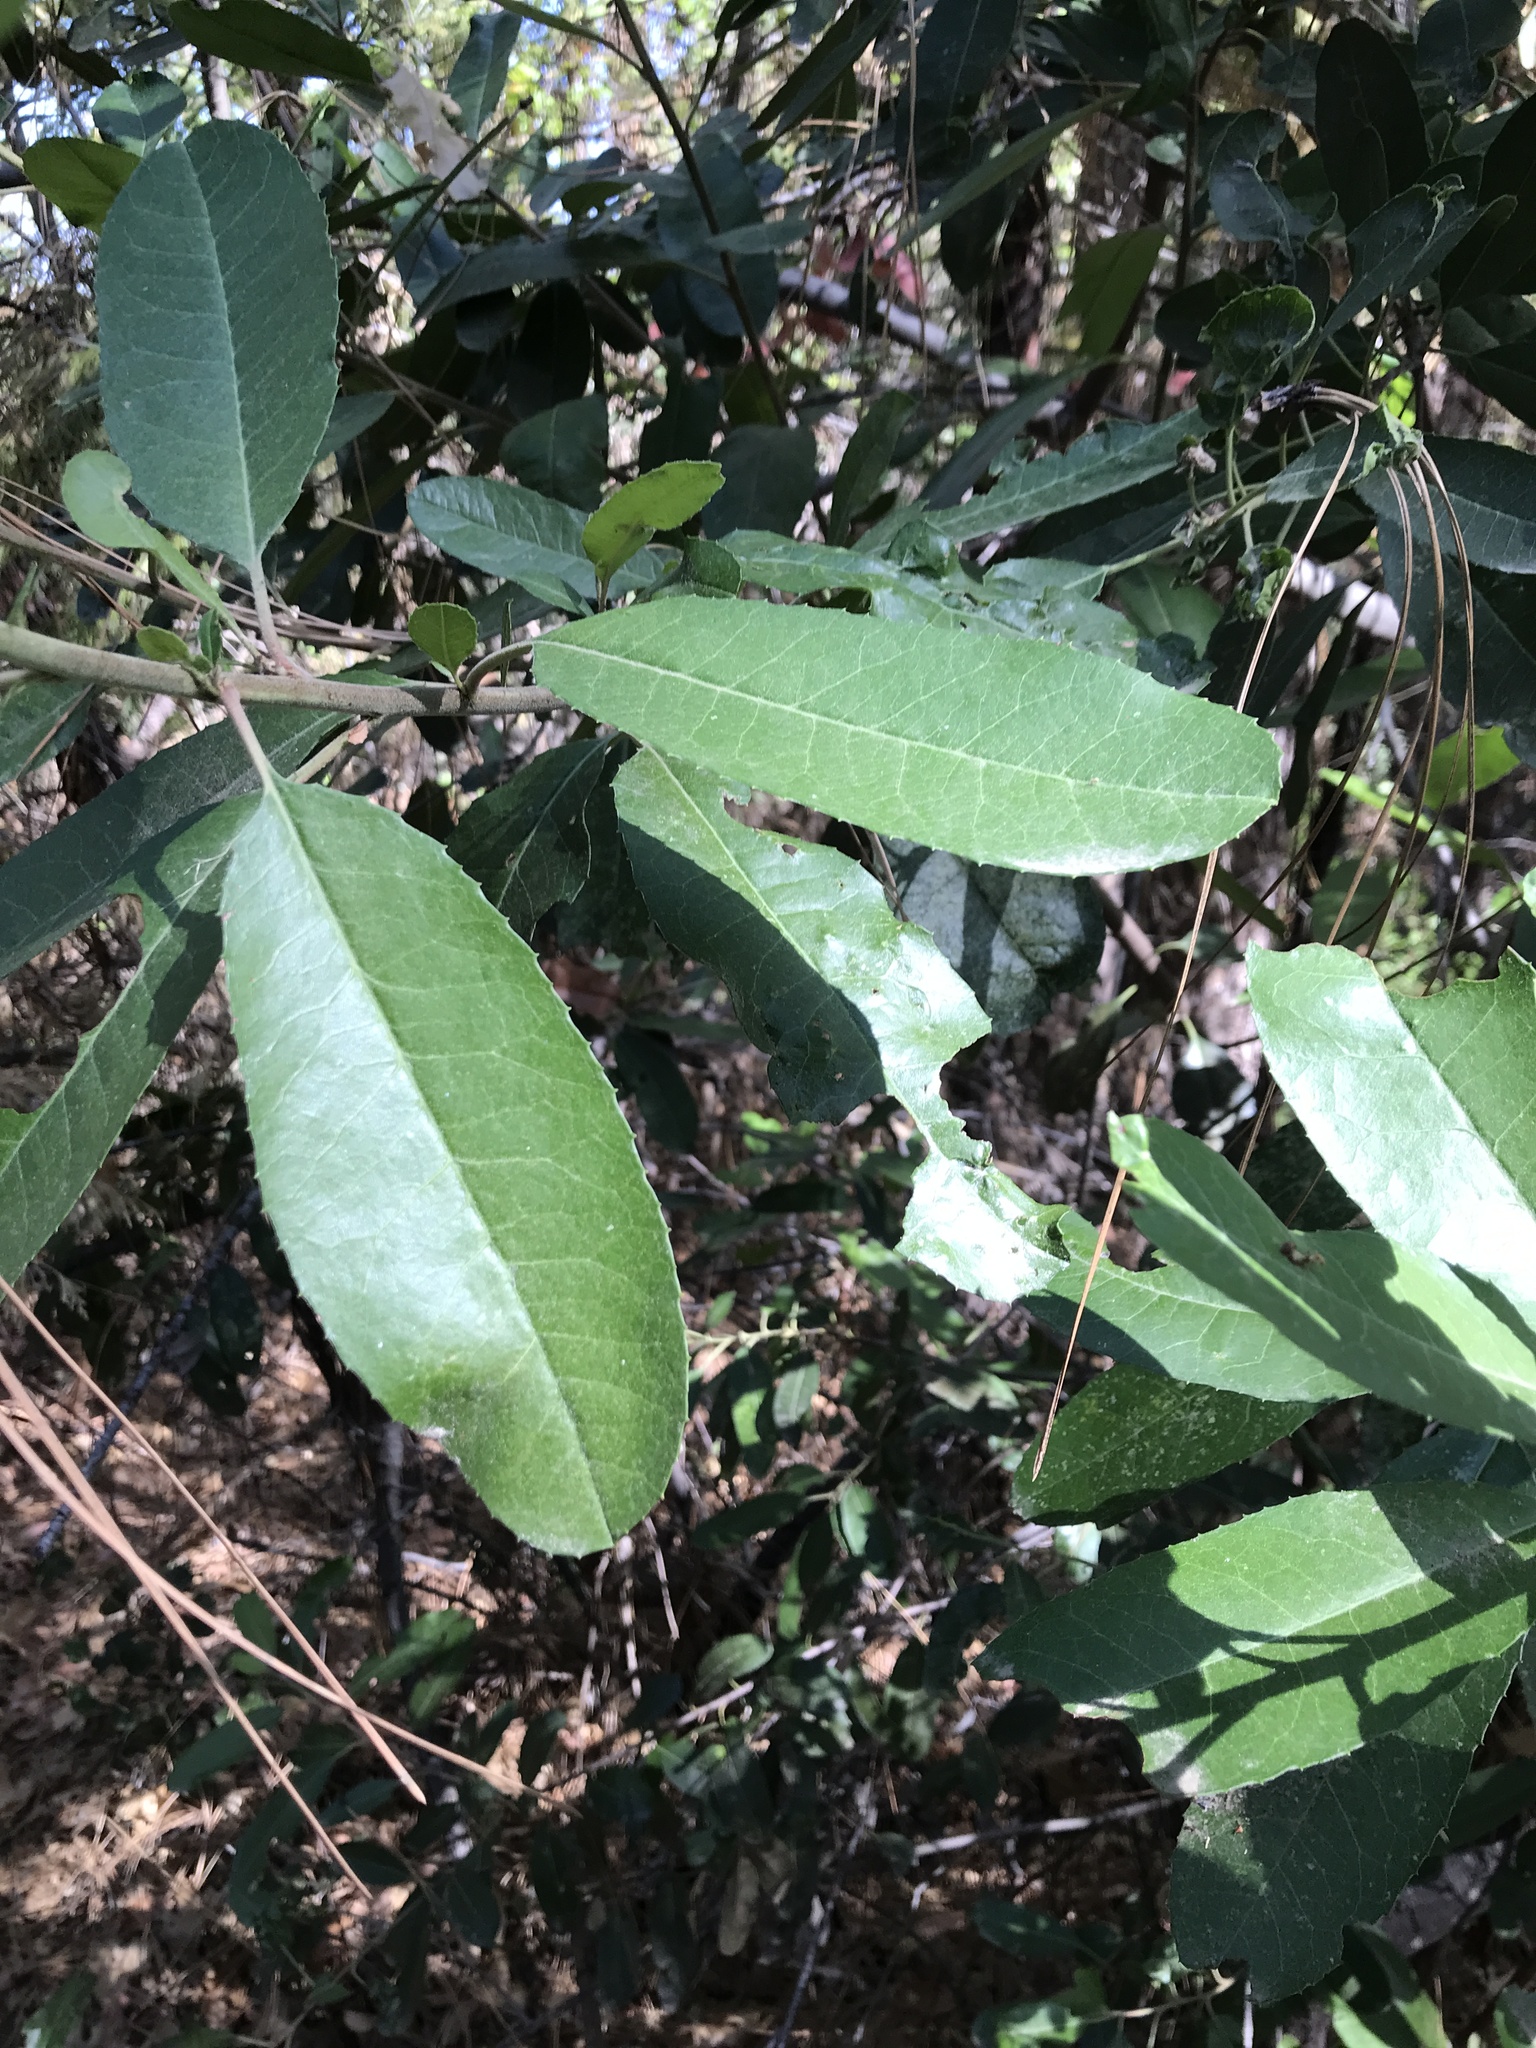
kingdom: Plantae
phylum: Tracheophyta
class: Magnoliopsida
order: Rosales
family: Rosaceae
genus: Heteromeles
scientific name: Heteromeles arbutifolia
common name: California-holly
